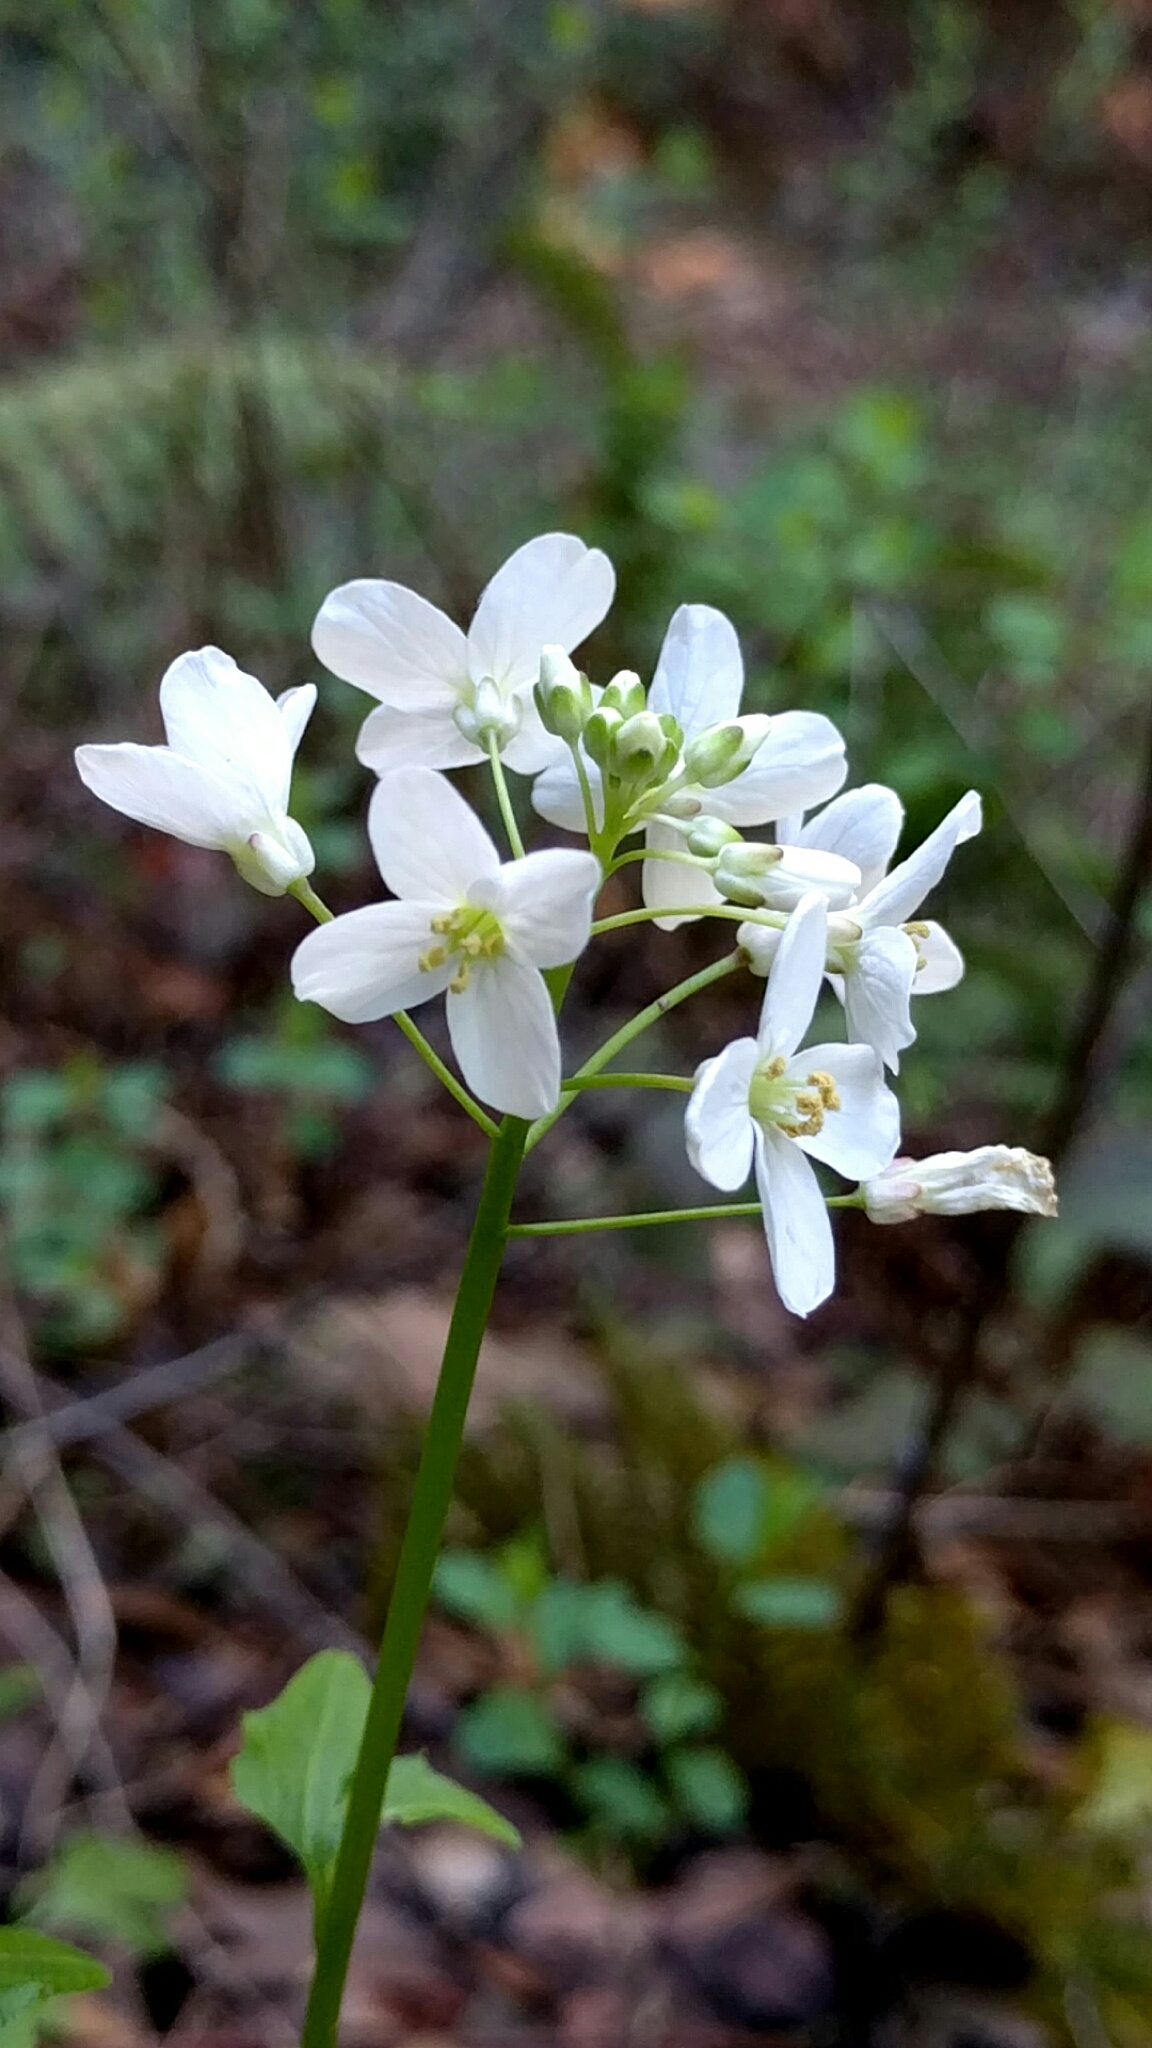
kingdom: Plantae
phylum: Tracheophyta
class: Magnoliopsida
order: Brassicales
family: Brassicaceae
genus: Cardamine
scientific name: Cardamine californica
